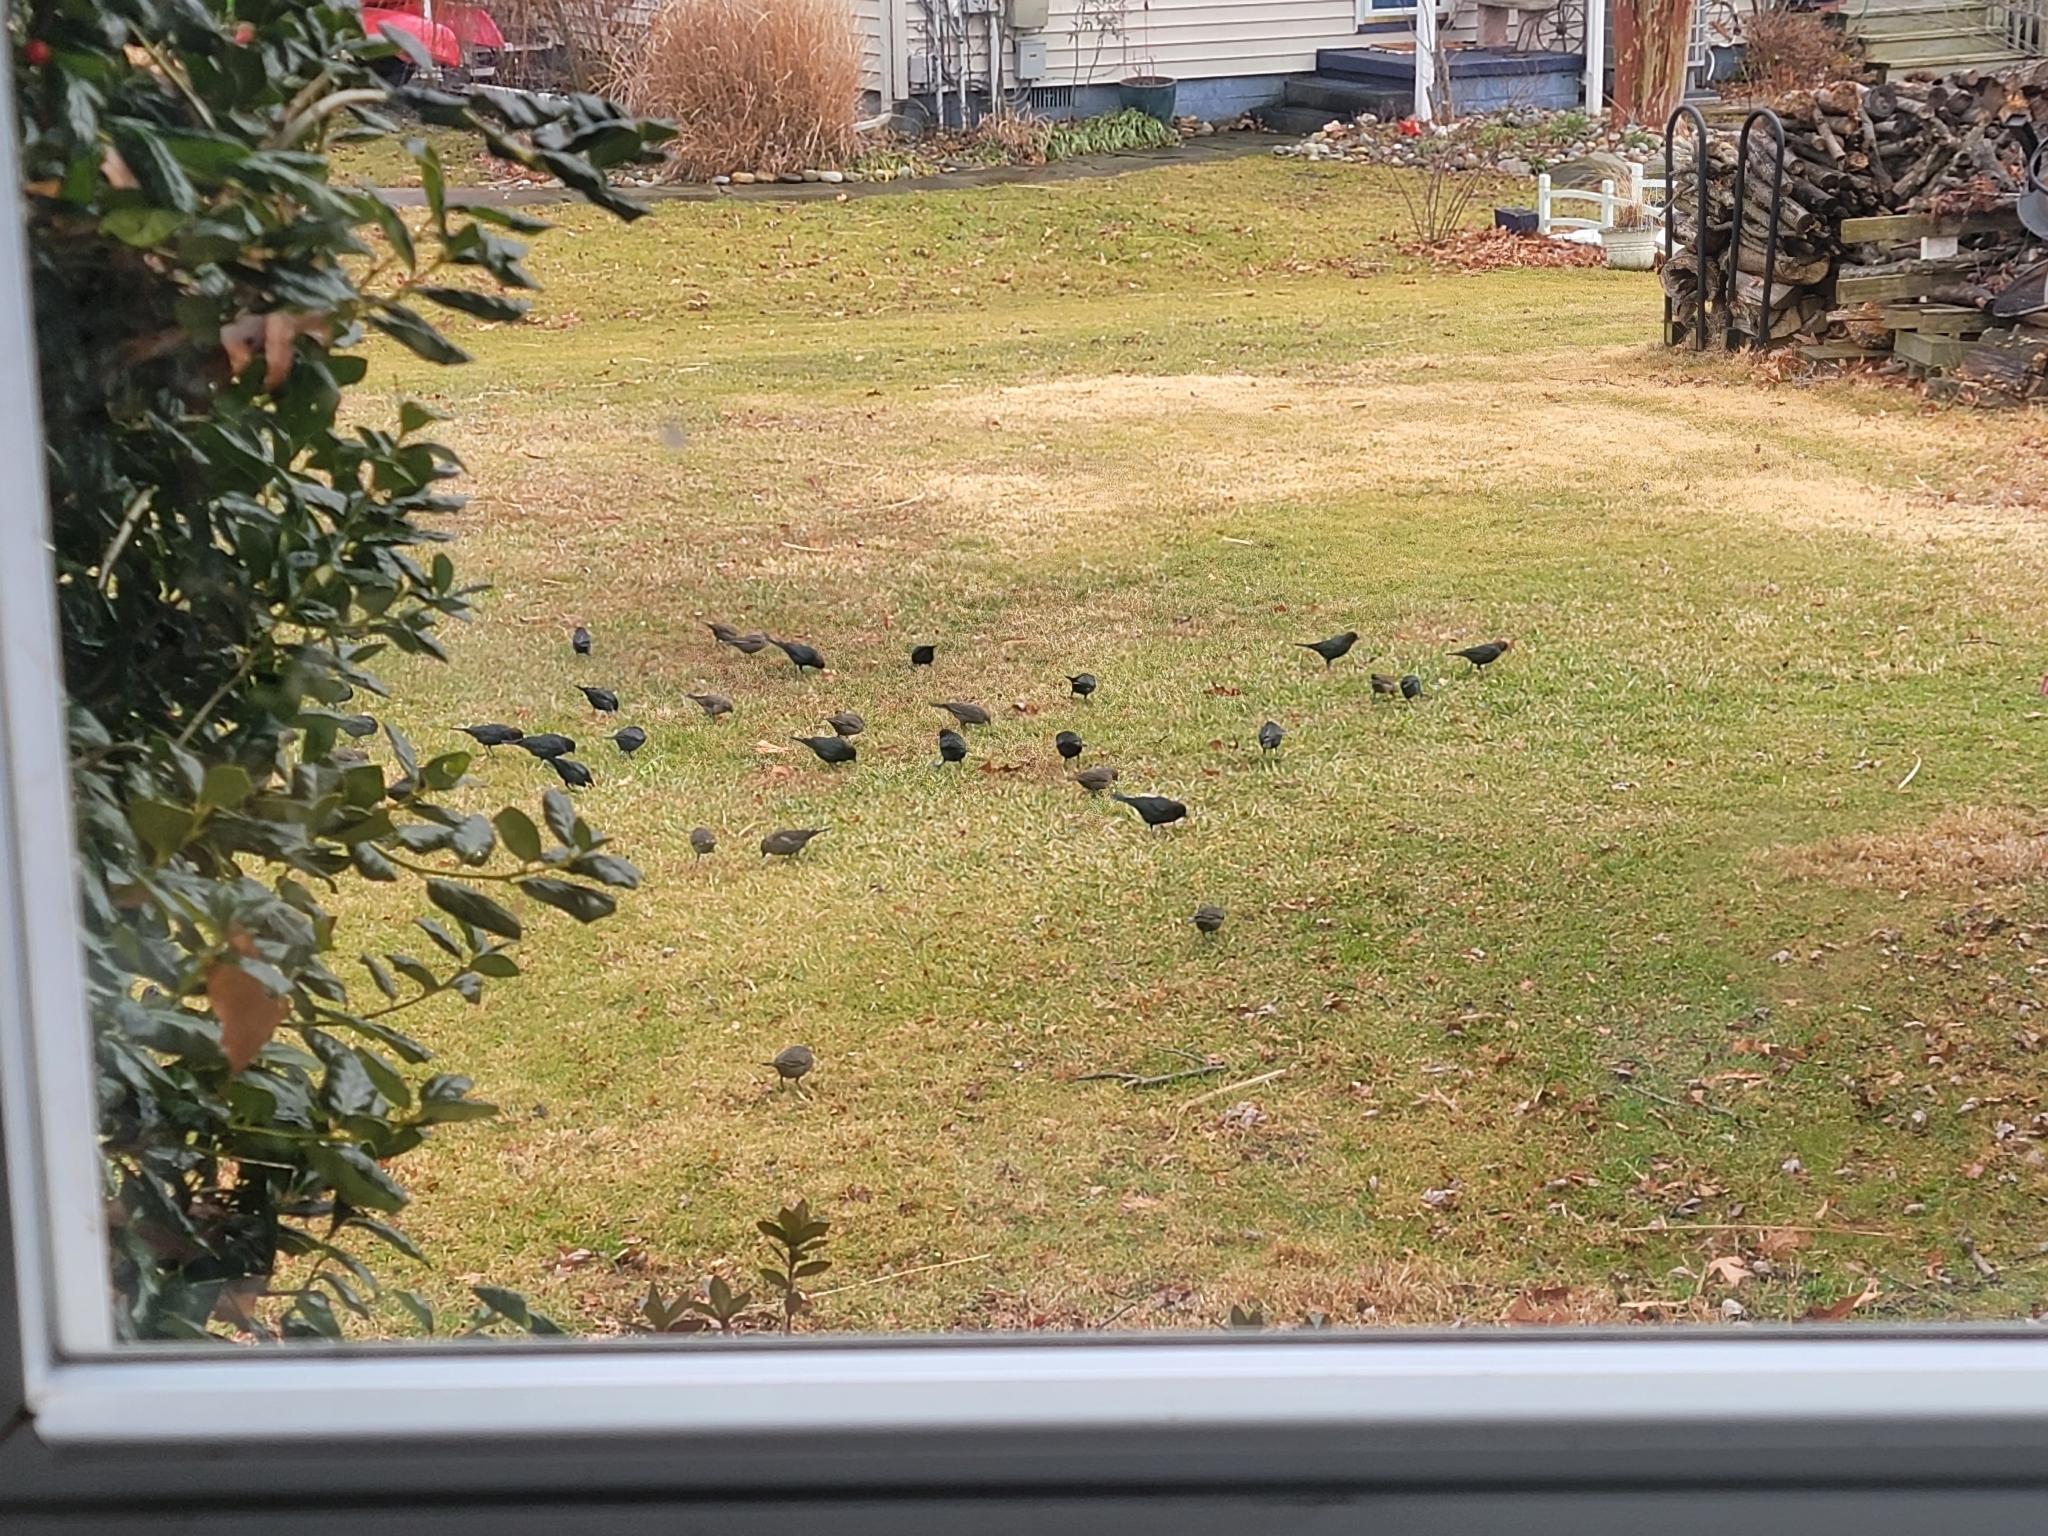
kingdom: Animalia
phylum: Chordata
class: Aves
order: Passeriformes
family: Icteridae
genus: Molothrus
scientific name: Molothrus ater
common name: Brown-headed cowbird
